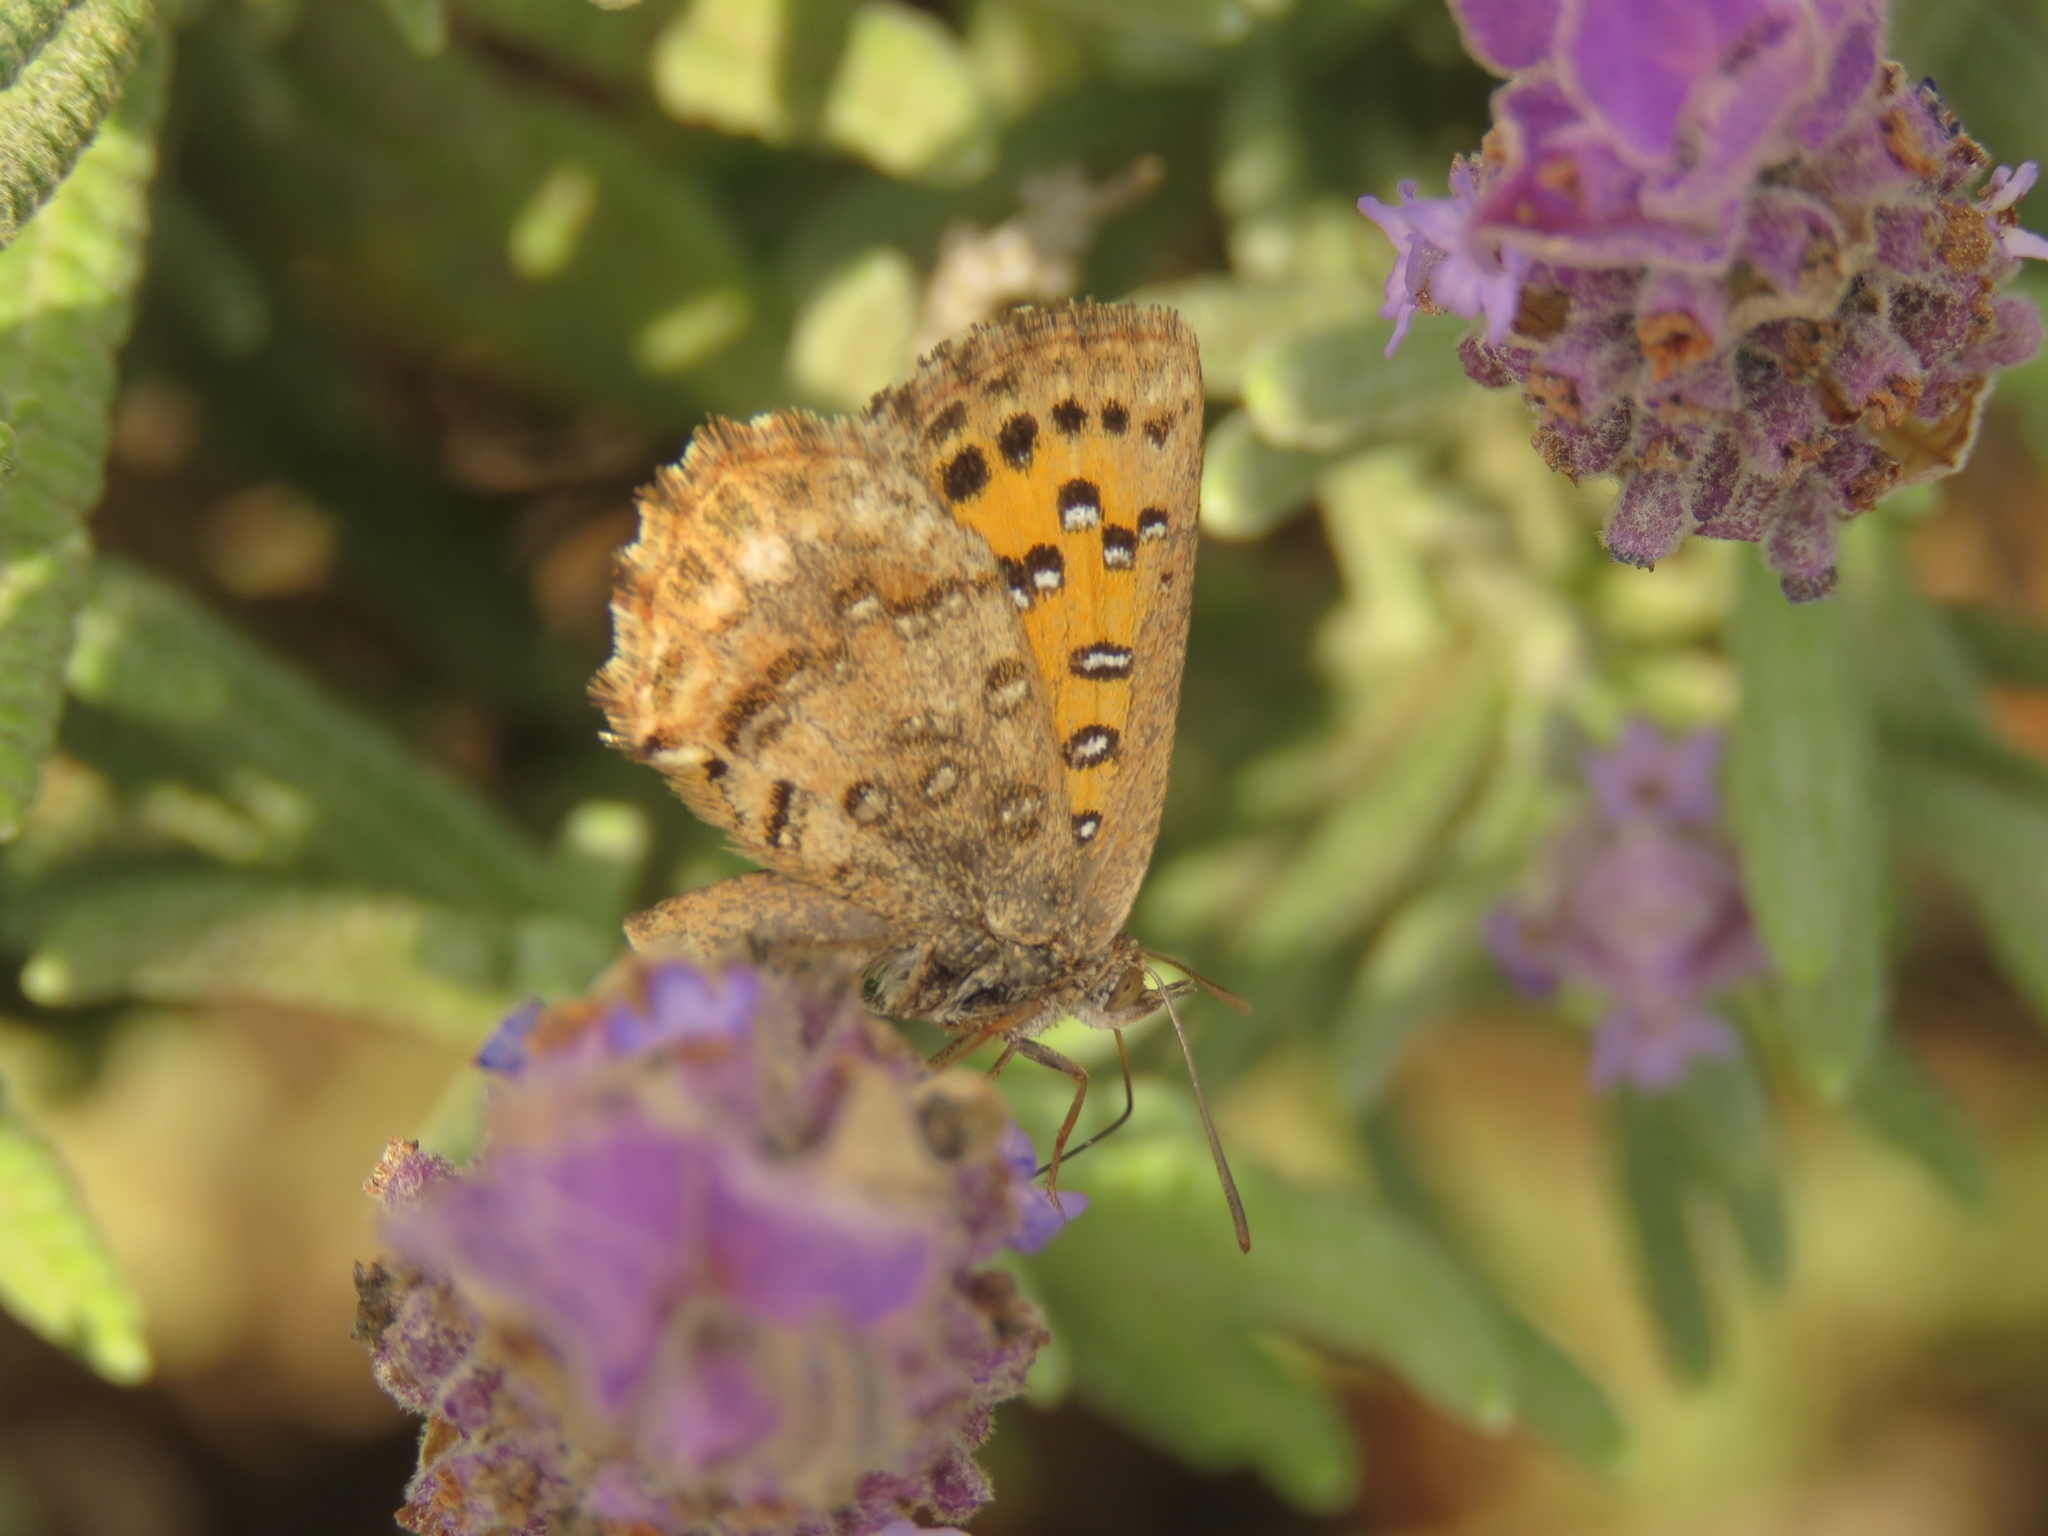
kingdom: Animalia
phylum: Arthropoda
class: Insecta
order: Lepidoptera
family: Lycaenidae
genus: Aloeides
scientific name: Aloeides pierus
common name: Dull copper
